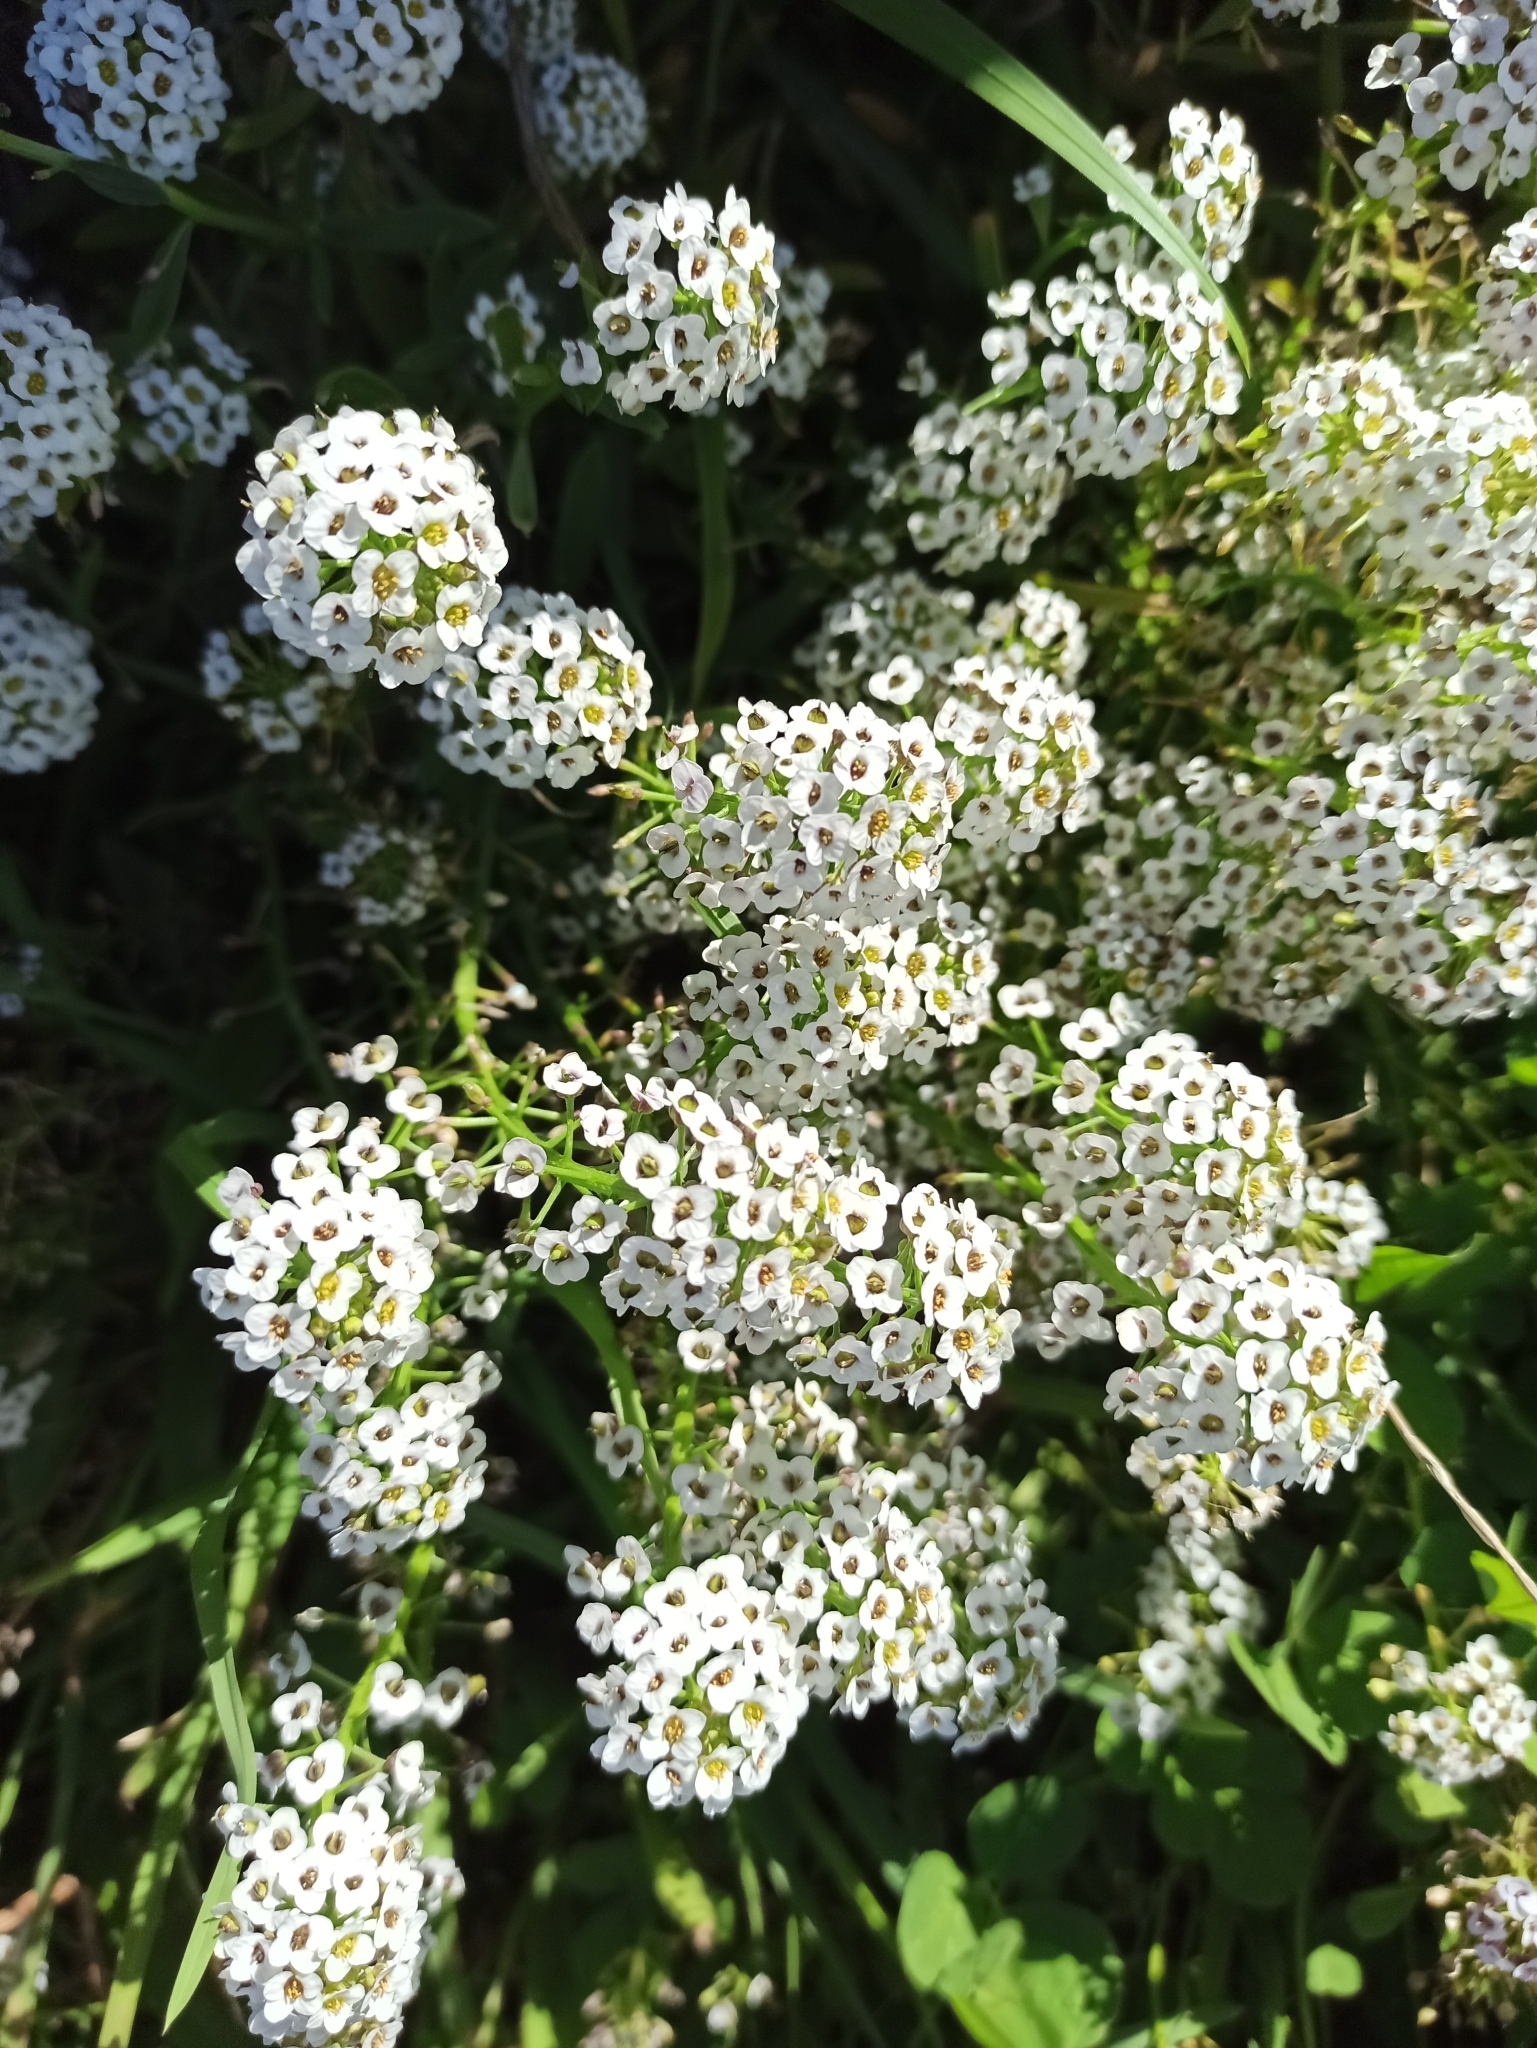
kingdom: Plantae
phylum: Tracheophyta
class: Magnoliopsida
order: Brassicales
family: Brassicaceae
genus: Lobularia
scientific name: Lobularia maritima
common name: Sweet alison
